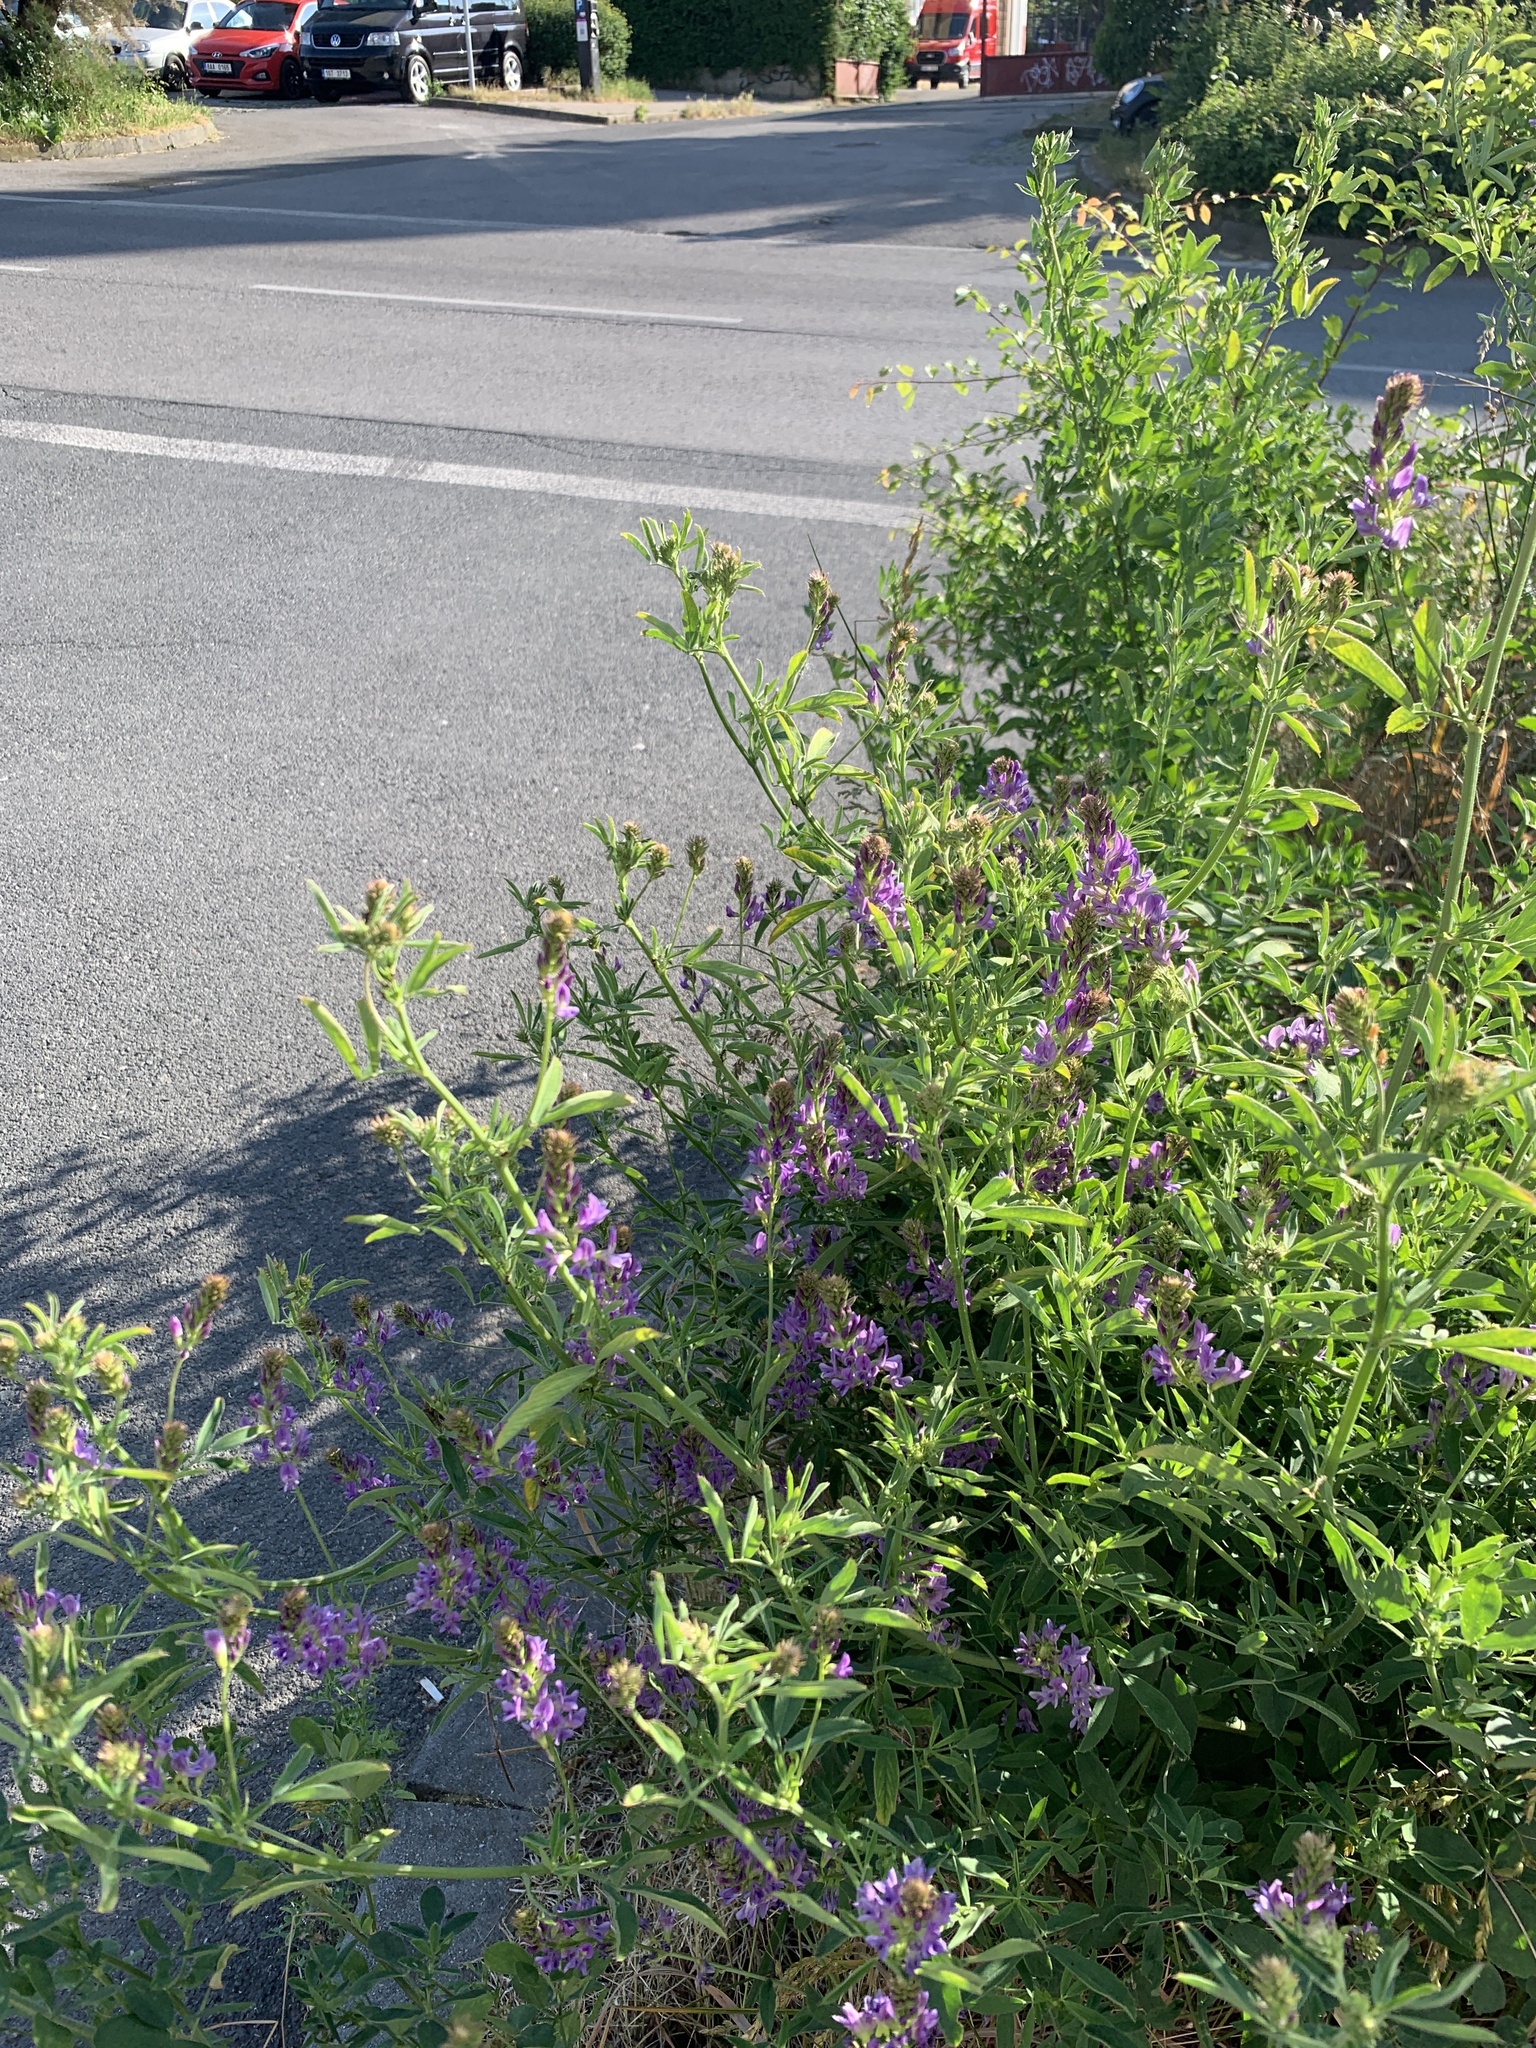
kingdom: Plantae
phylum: Tracheophyta
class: Magnoliopsida
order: Fabales
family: Fabaceae
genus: Medicago
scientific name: Medicago sativa
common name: Alfalfa
